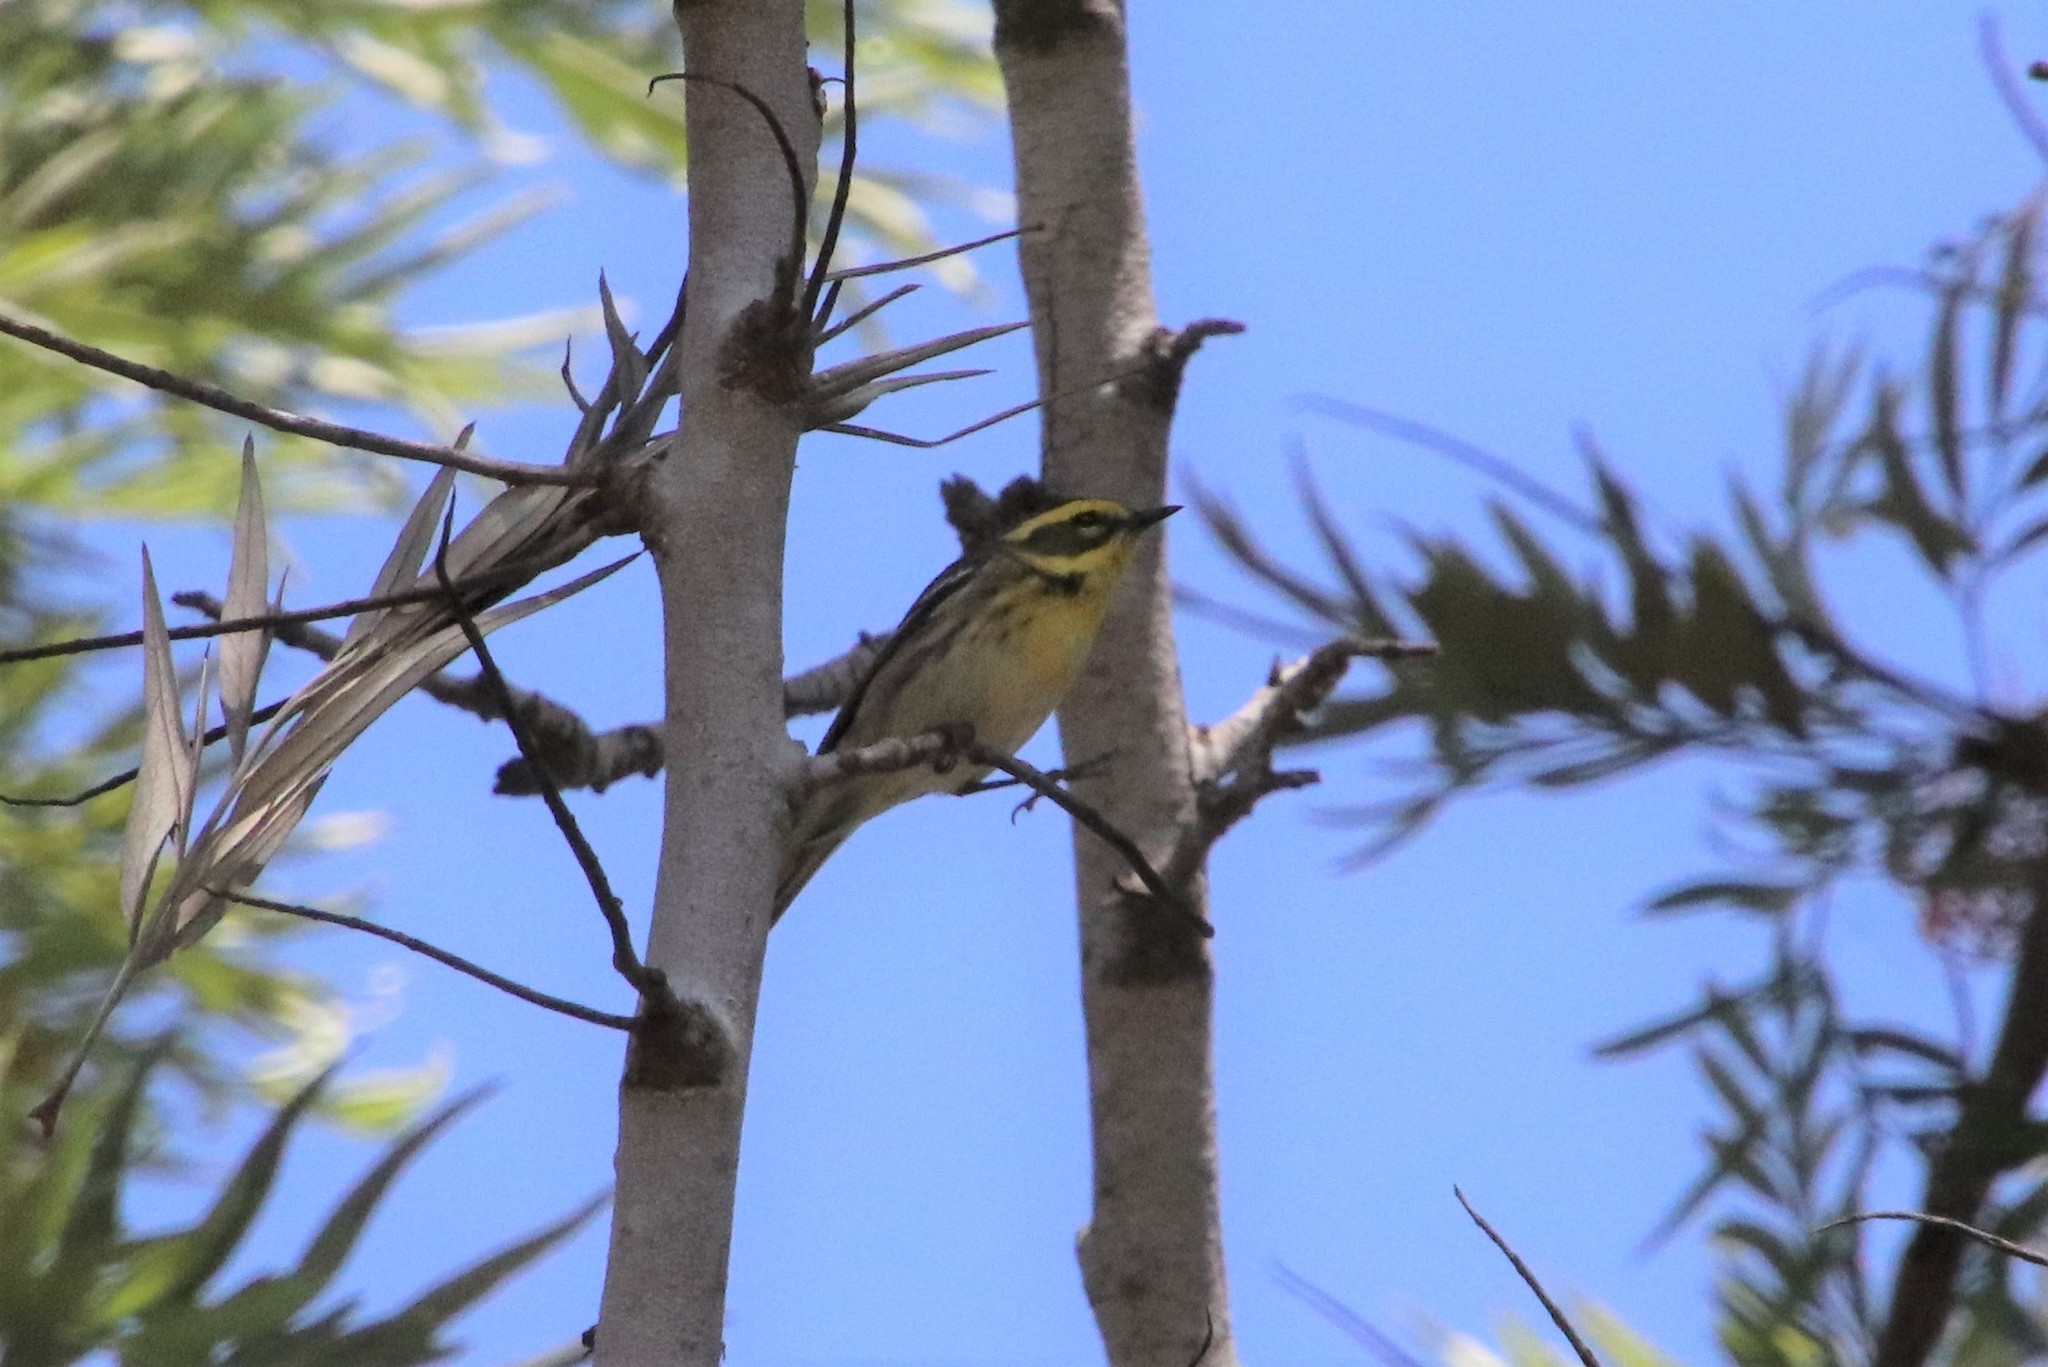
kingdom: Animalia
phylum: Chordata
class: Aves
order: Passeriformes
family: Parulidae
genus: Setophaga
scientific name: Setophaga townsendi
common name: Townsend's warbler
